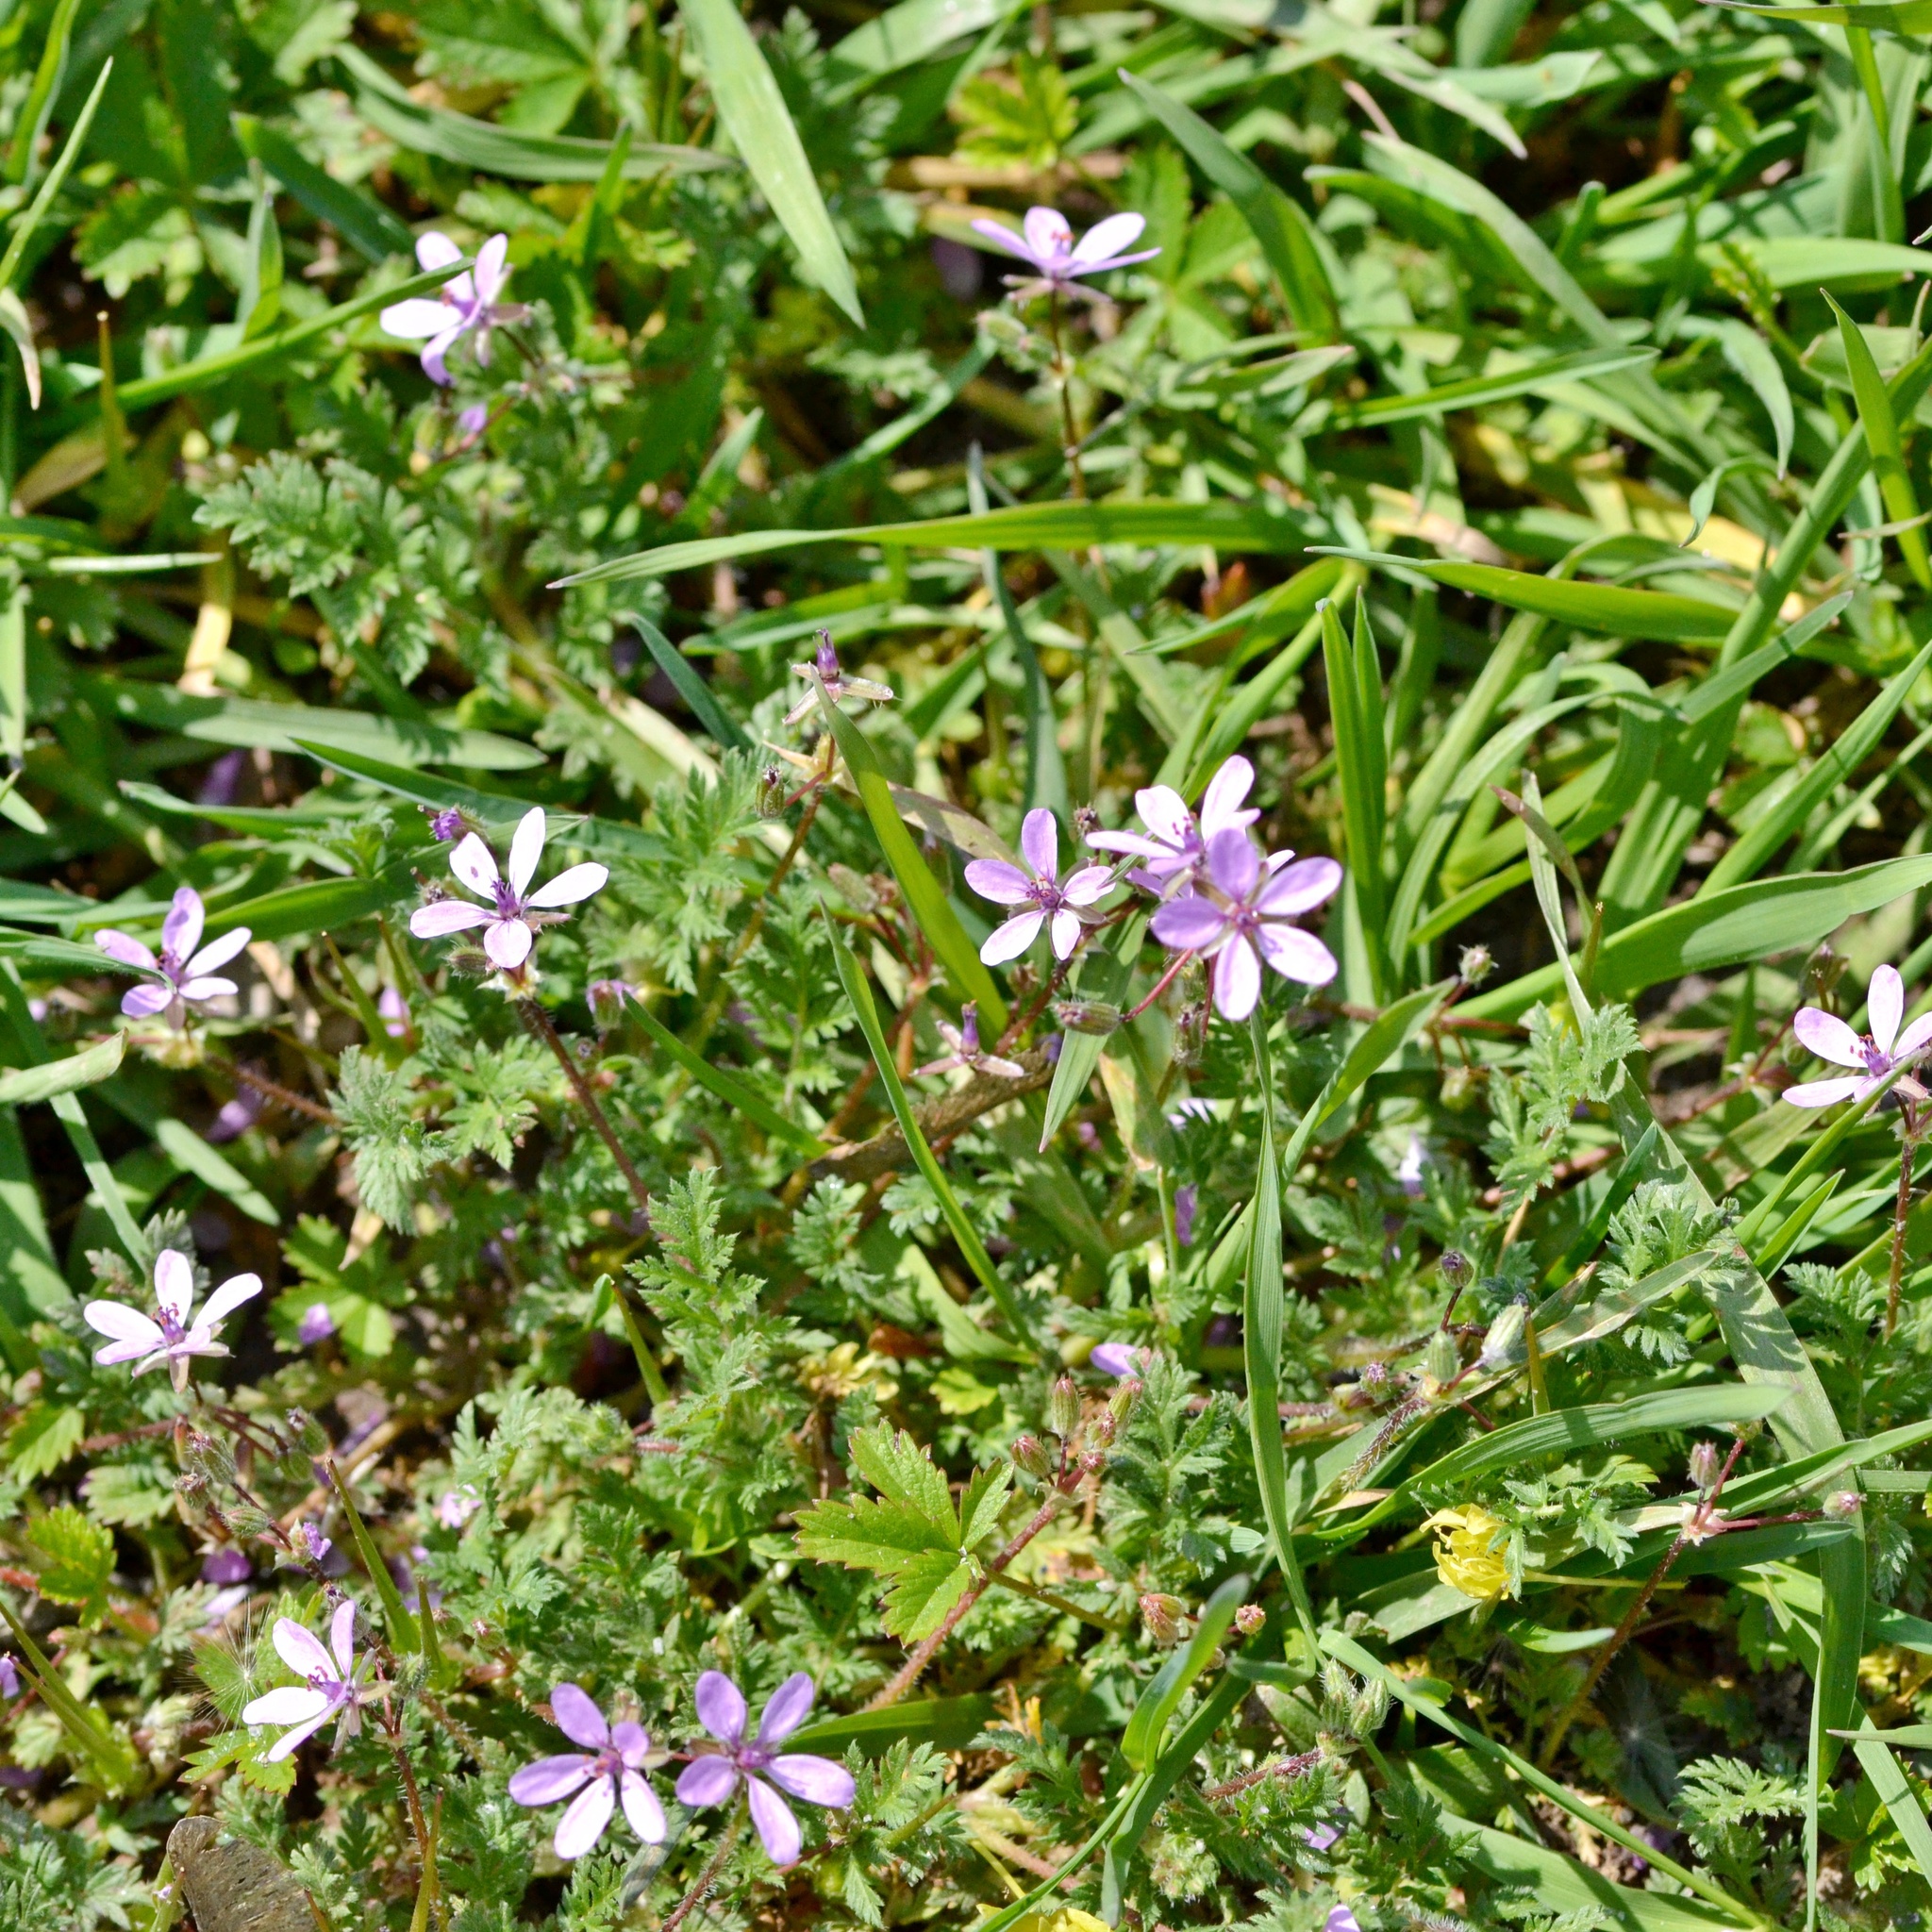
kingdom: Plantae
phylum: Tracheophyta
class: Magnoliopsida
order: Geraniales
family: Geraniaceae
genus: Erodium
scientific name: Erodium cicutarium
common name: Common stork's-bill
